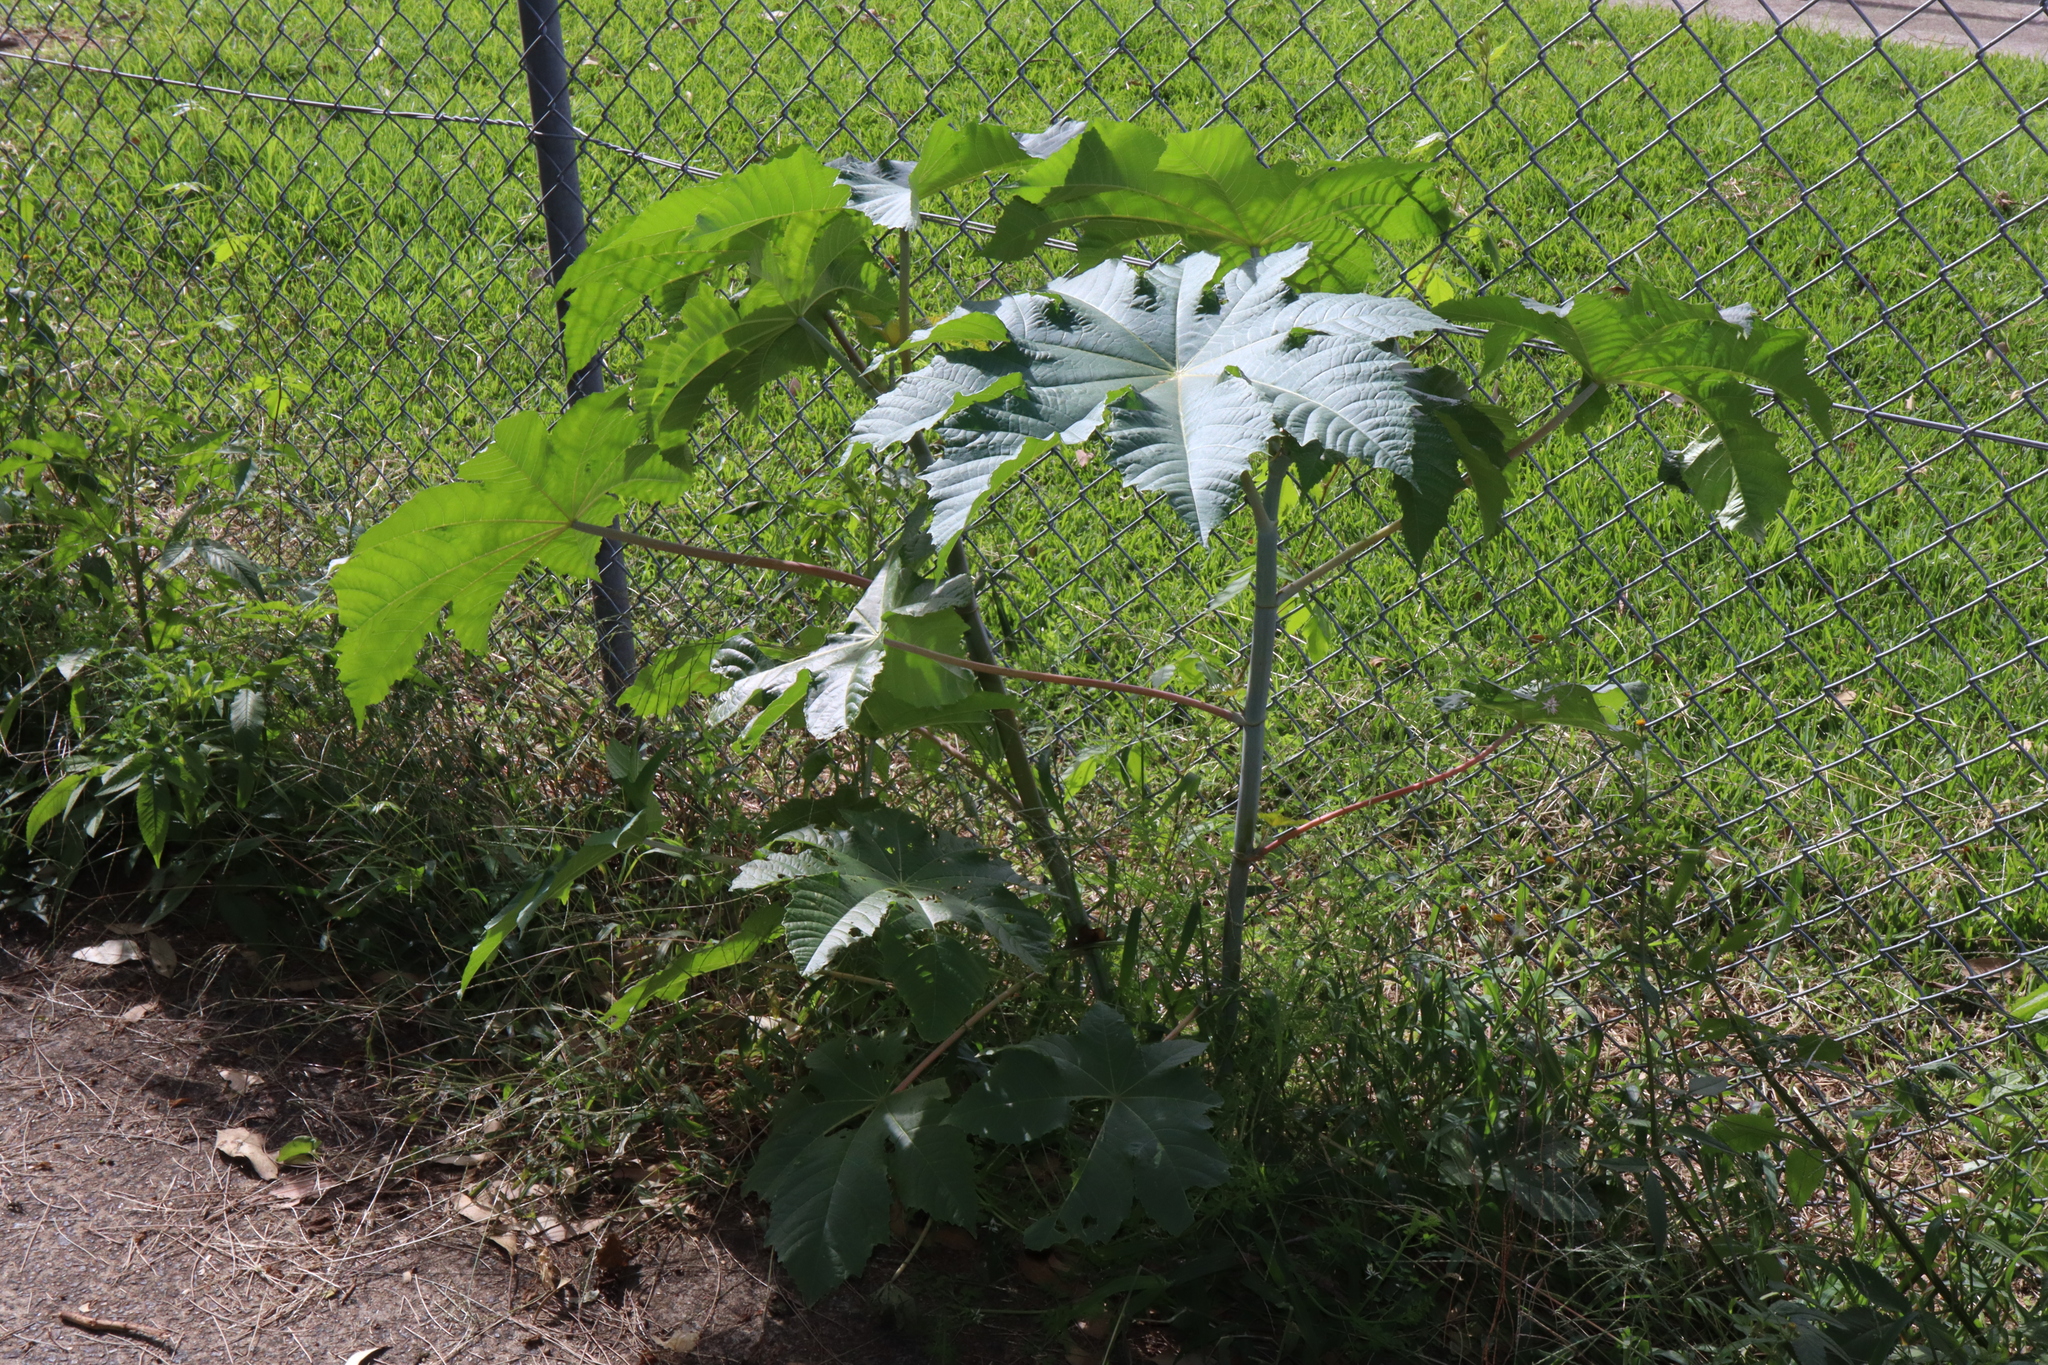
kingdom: Plantae
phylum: Tracheophyta
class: Magnoliopsida
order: Malpighiales
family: Euphorbiaceae
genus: Ricinus
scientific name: Ricinus communis
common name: Castor-oil-plant
